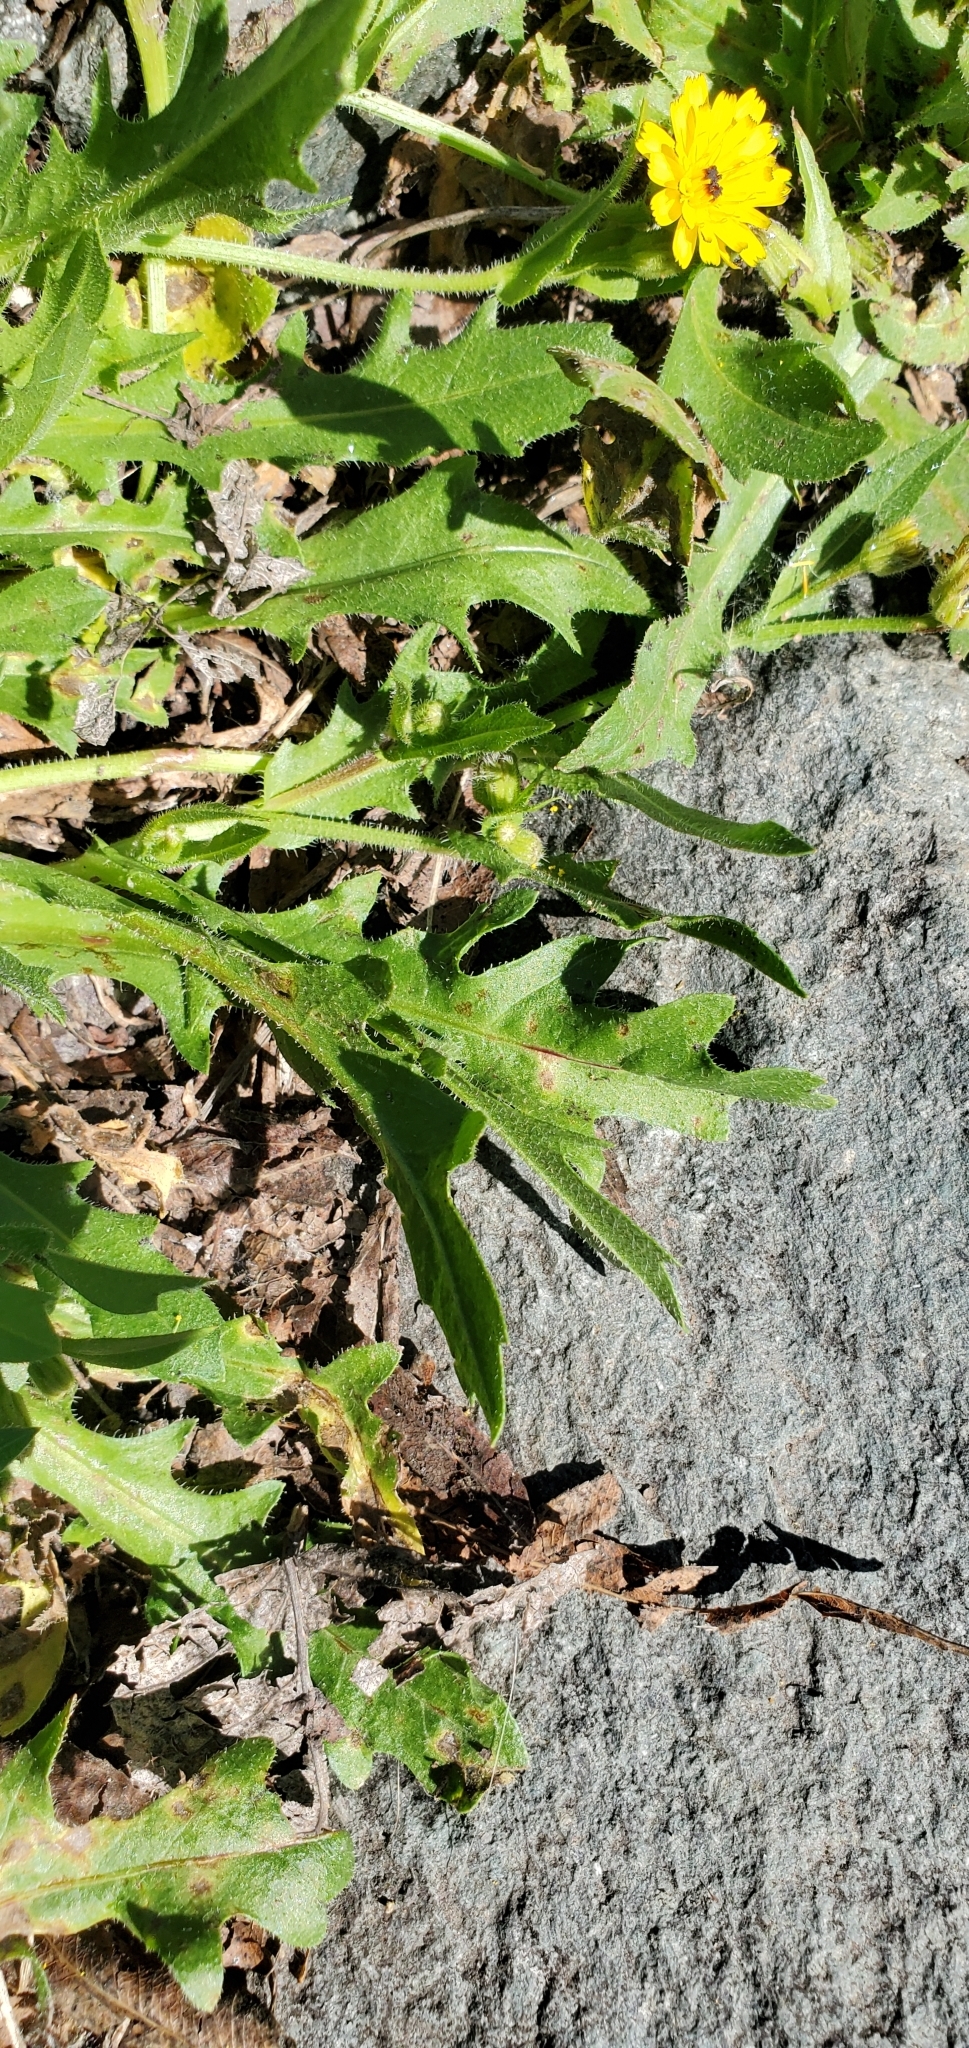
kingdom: Plantae
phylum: Tracheophyta
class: Magnoliopsida
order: Asterales
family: Asteraceae
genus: Hedypnois
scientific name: Hedypnois rhagadioloides
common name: Cretan weed
